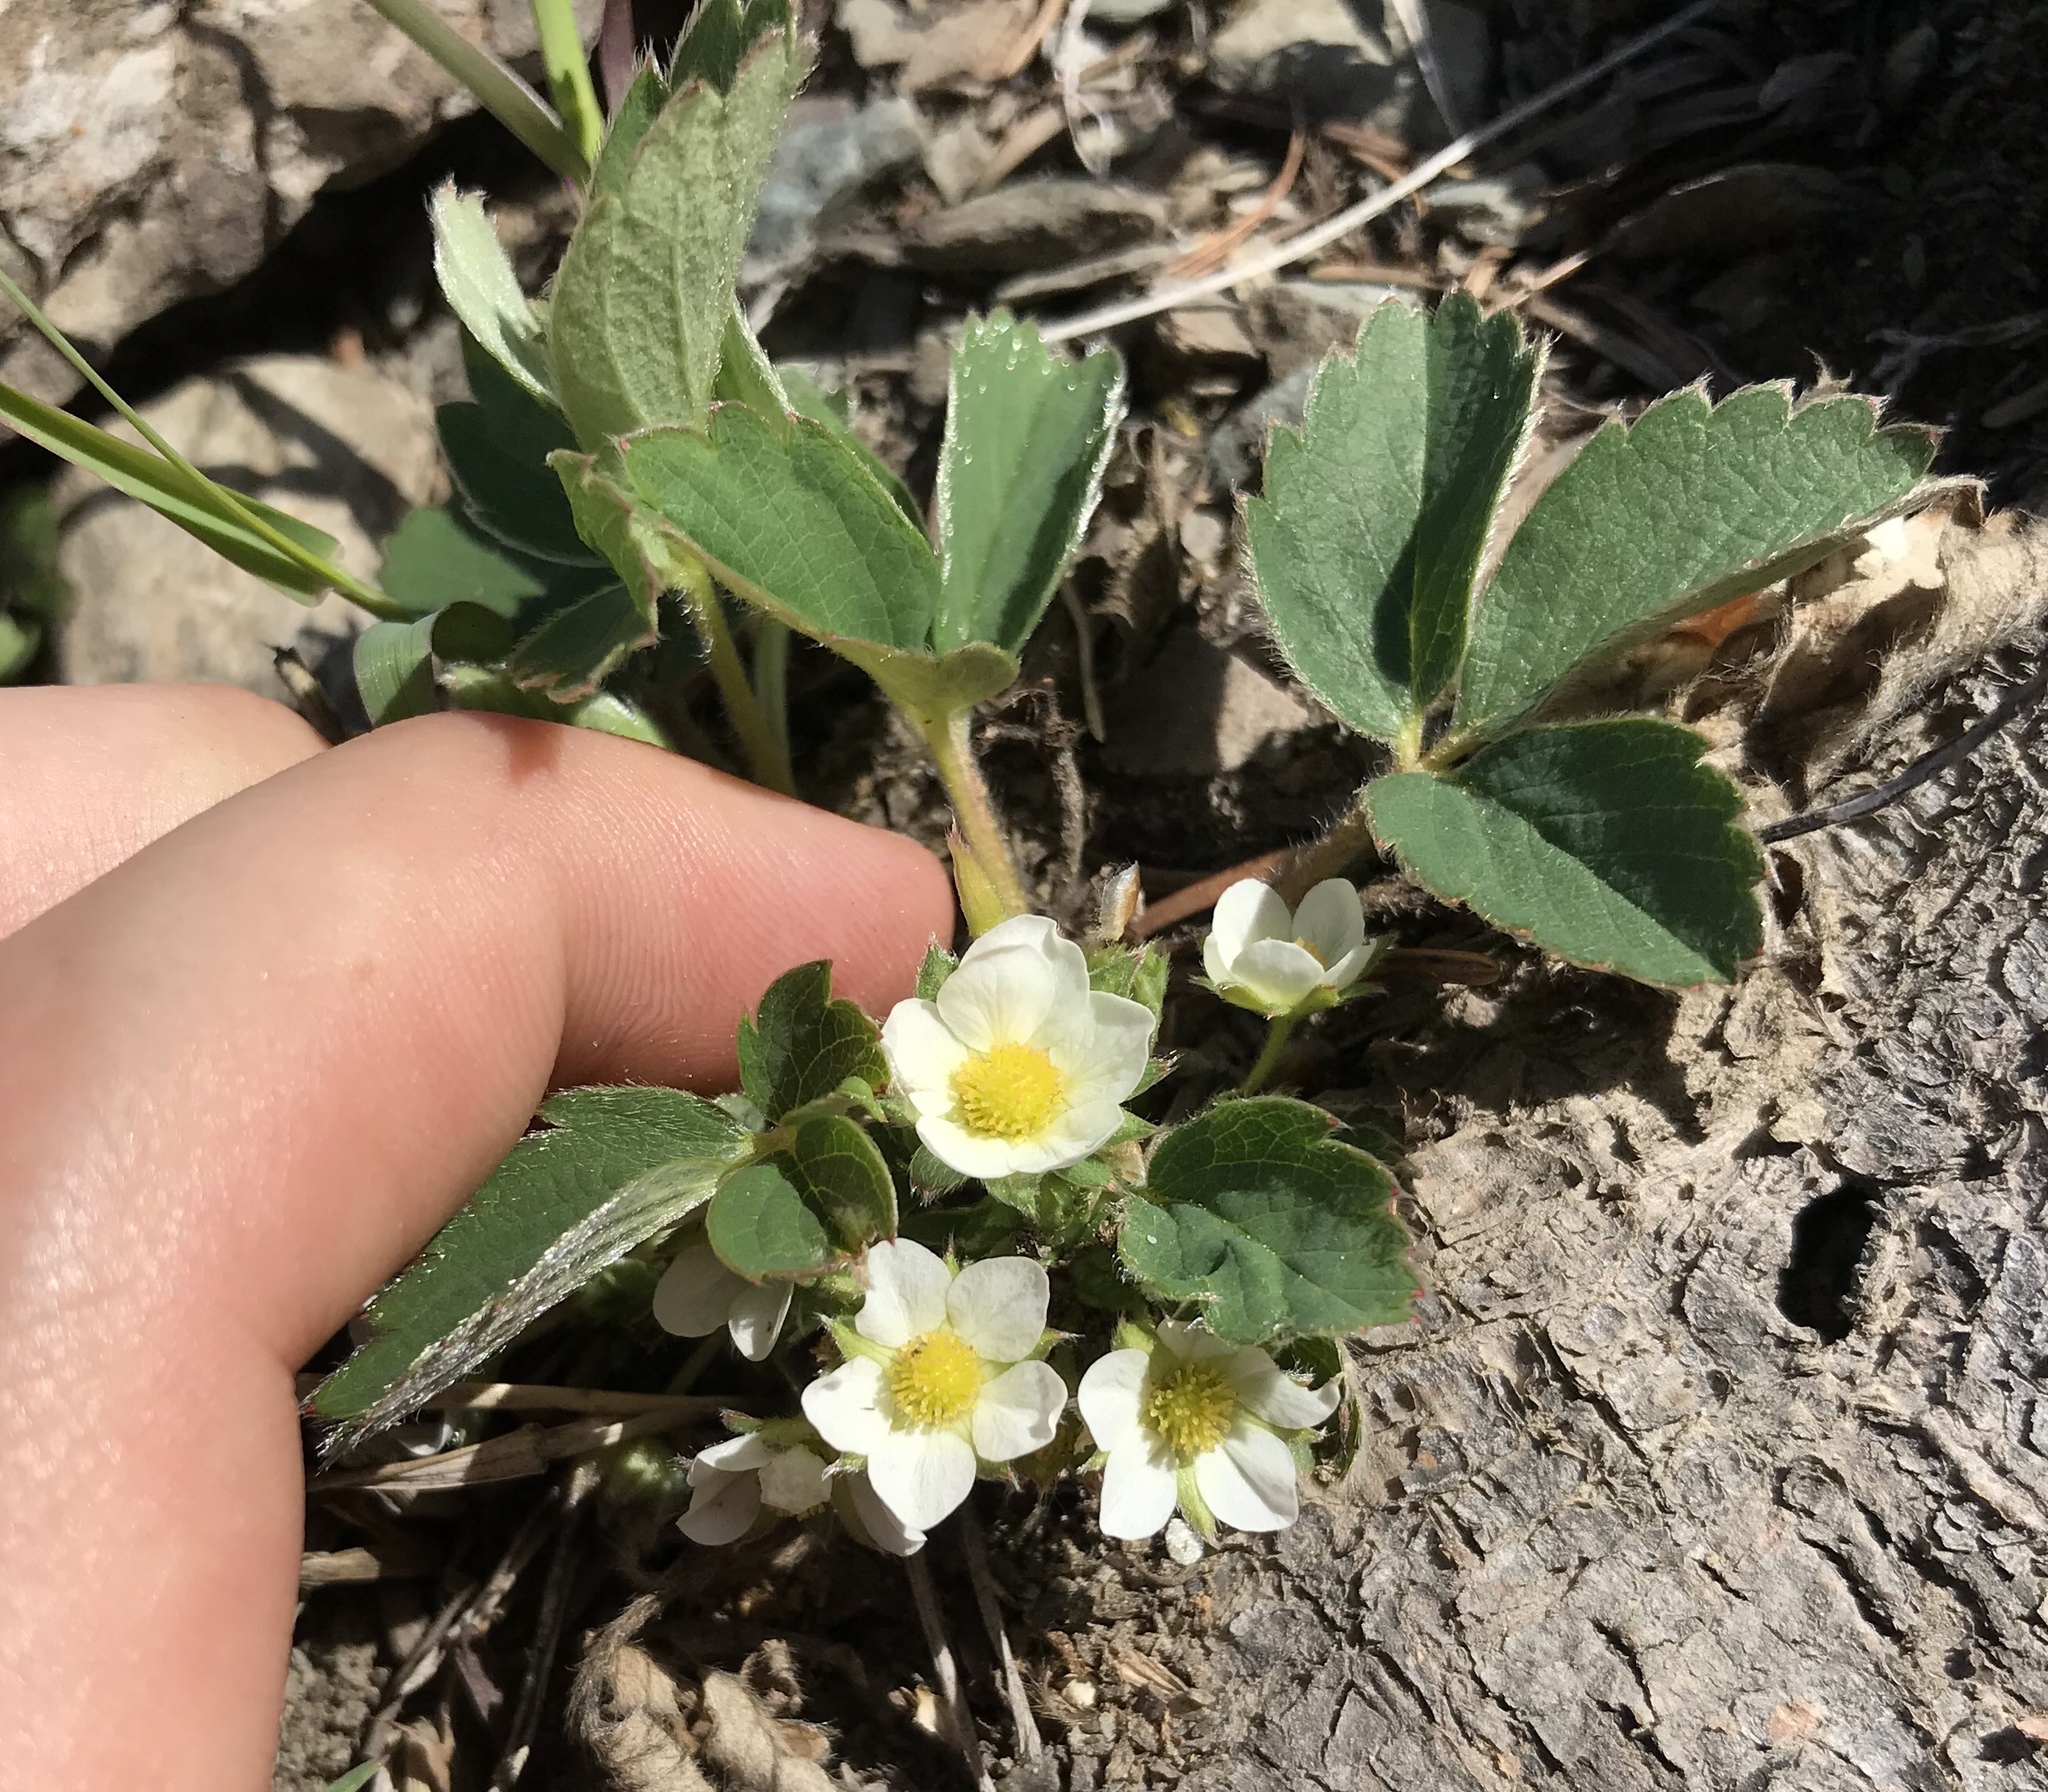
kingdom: Plantae
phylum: Tracheophyta
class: Magnoliopsida
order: Rosales
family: Rosaceae
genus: Fragaria
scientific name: Fragaria virginiana
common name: Thickleaved wild strawberry
